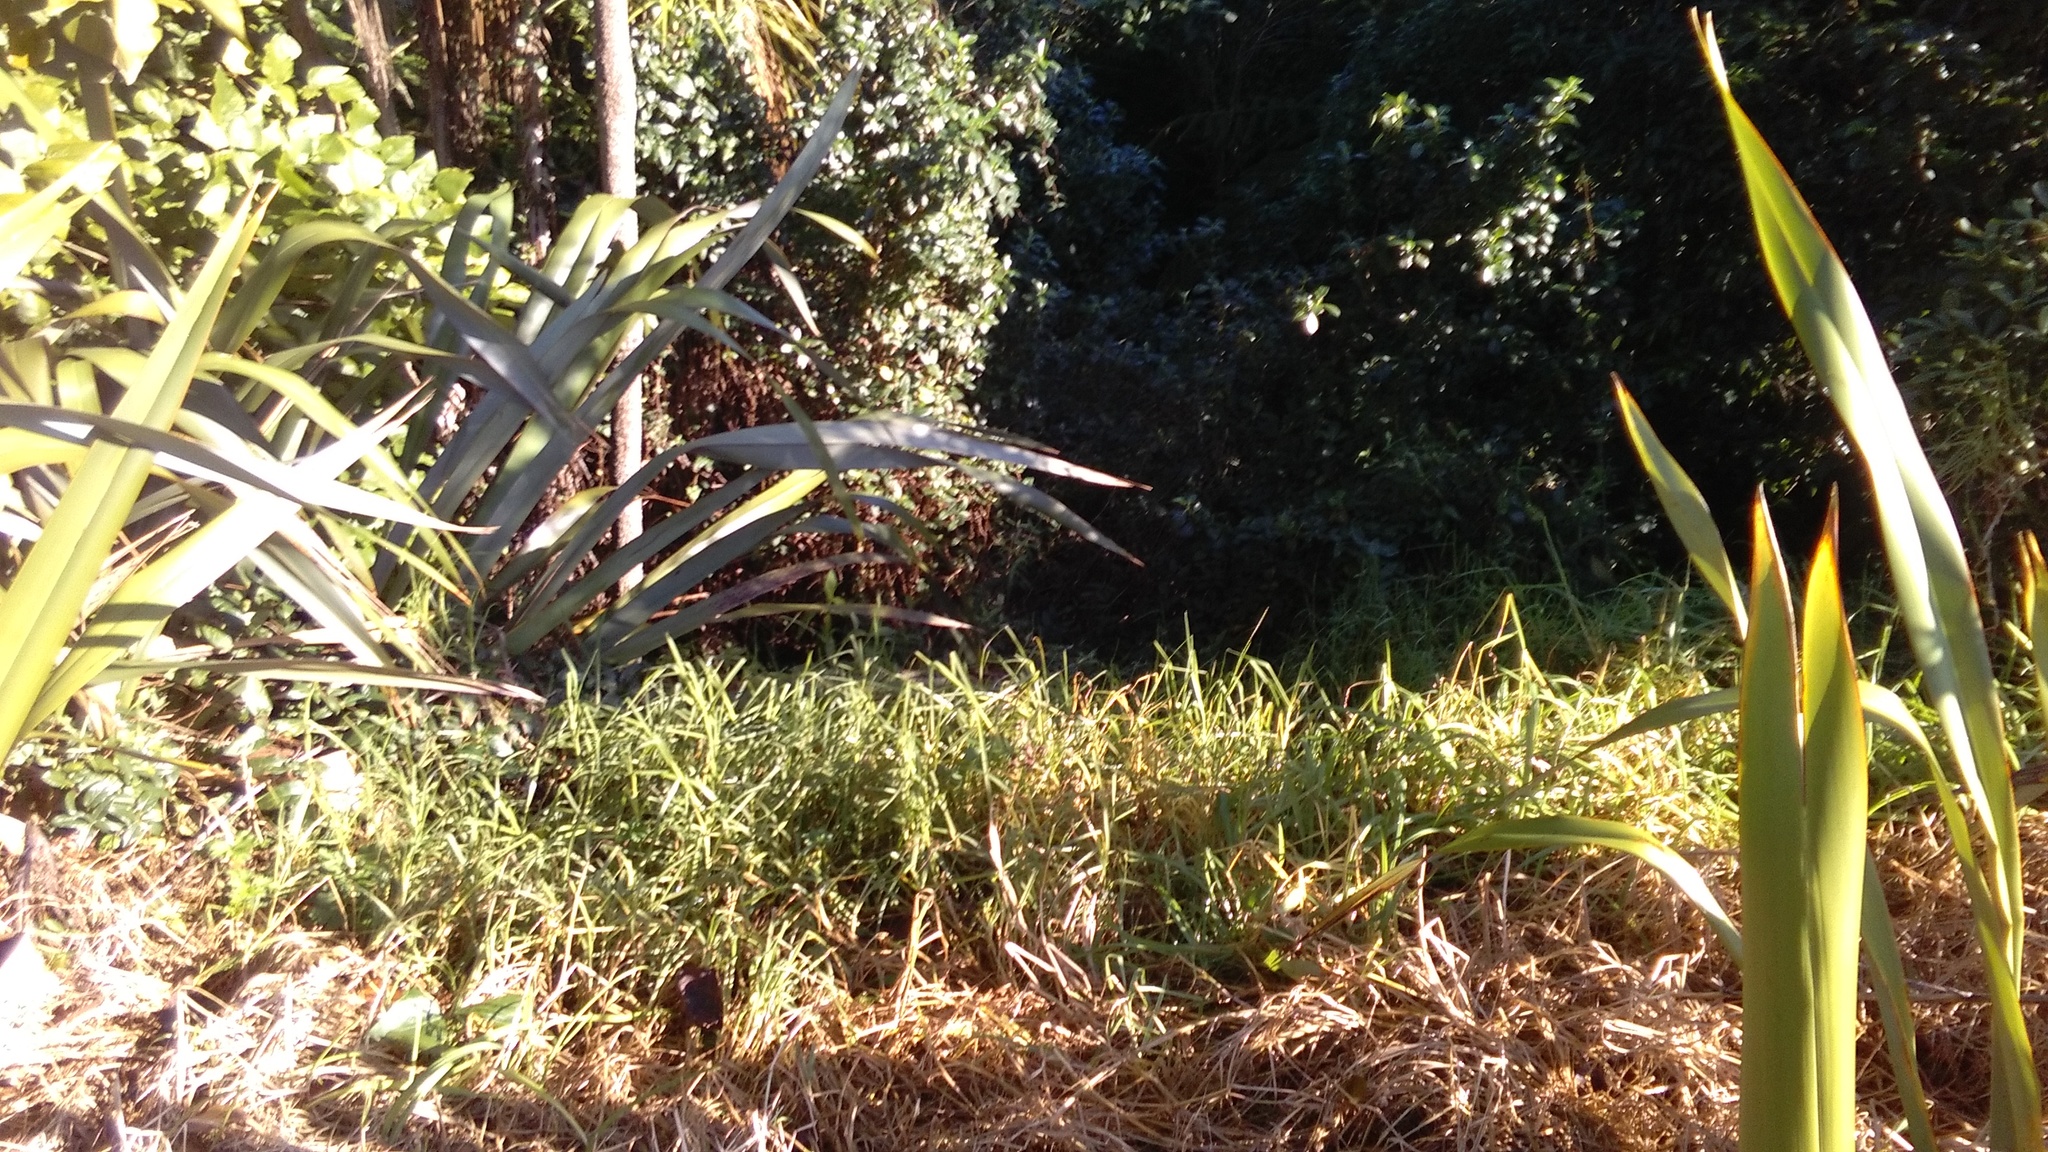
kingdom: Plantae
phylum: Tracheophyta
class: Liliopsida
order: Poales
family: Poaceae
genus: Cenchrus
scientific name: Cenchrus clandestinus
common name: Kikuyugrass
